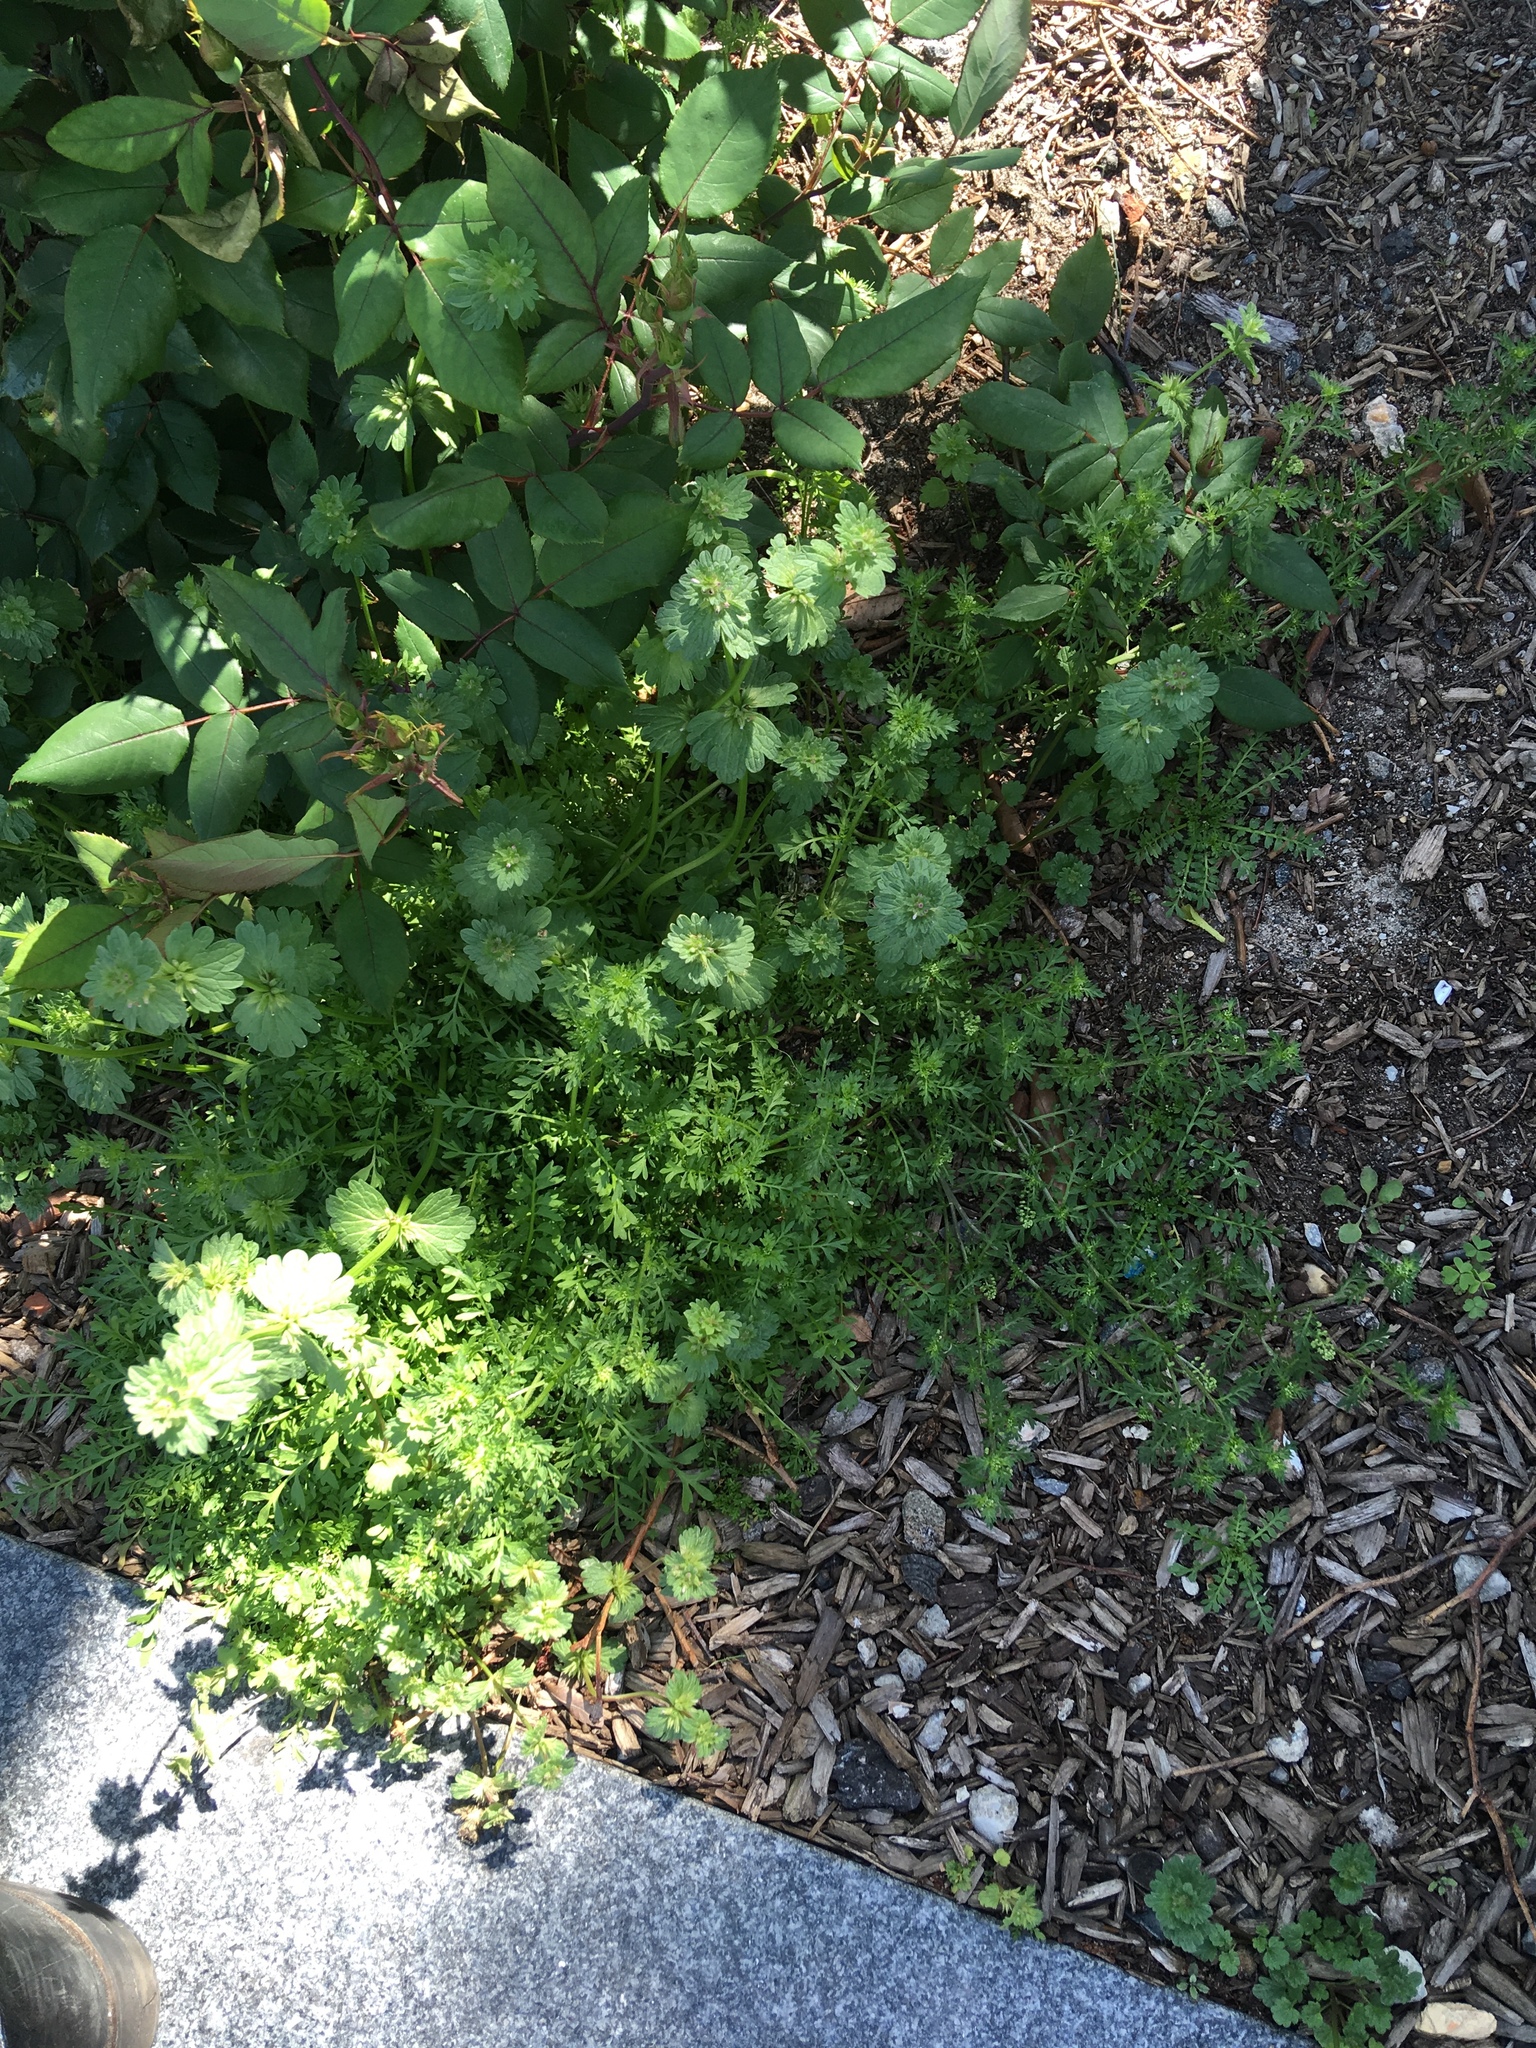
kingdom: Plantae
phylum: Tracheophyta
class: Magnoliopsida
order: Brassicales
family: Brassicaceae
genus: Lepidium
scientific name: Lepidium didymum
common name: Lesser swinecress
